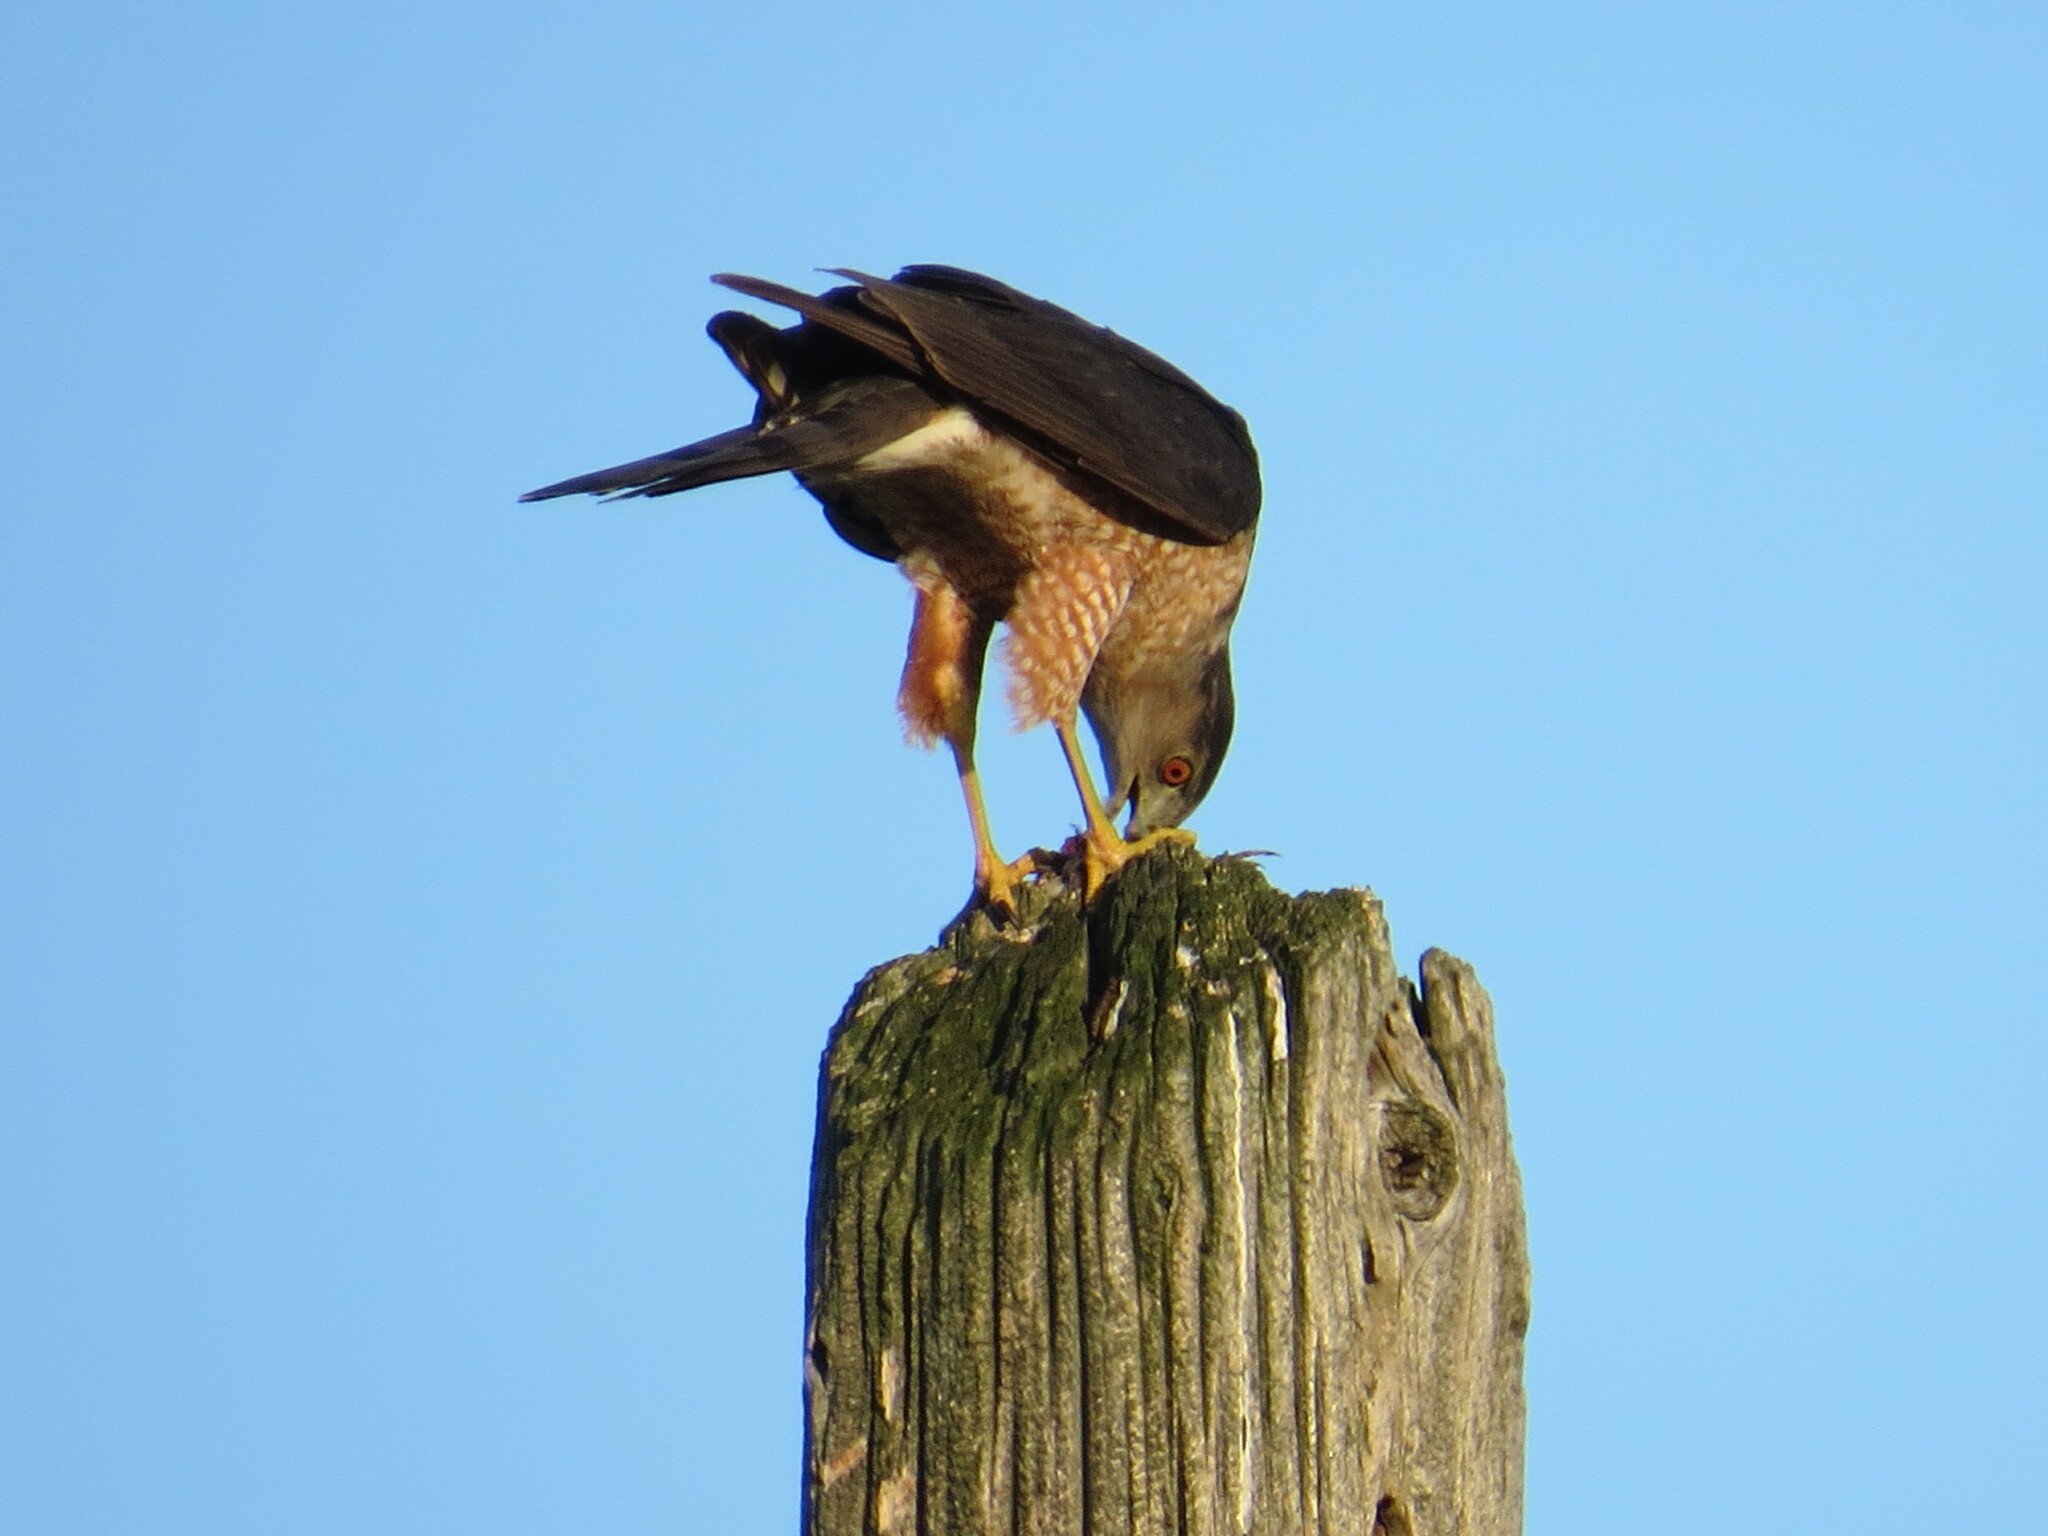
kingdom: Animalia
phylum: Chordata
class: Aves
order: Accipitriformes
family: Accipitridae
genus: Accipiter
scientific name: Accipiter cooperii
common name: Cooper's hawk
